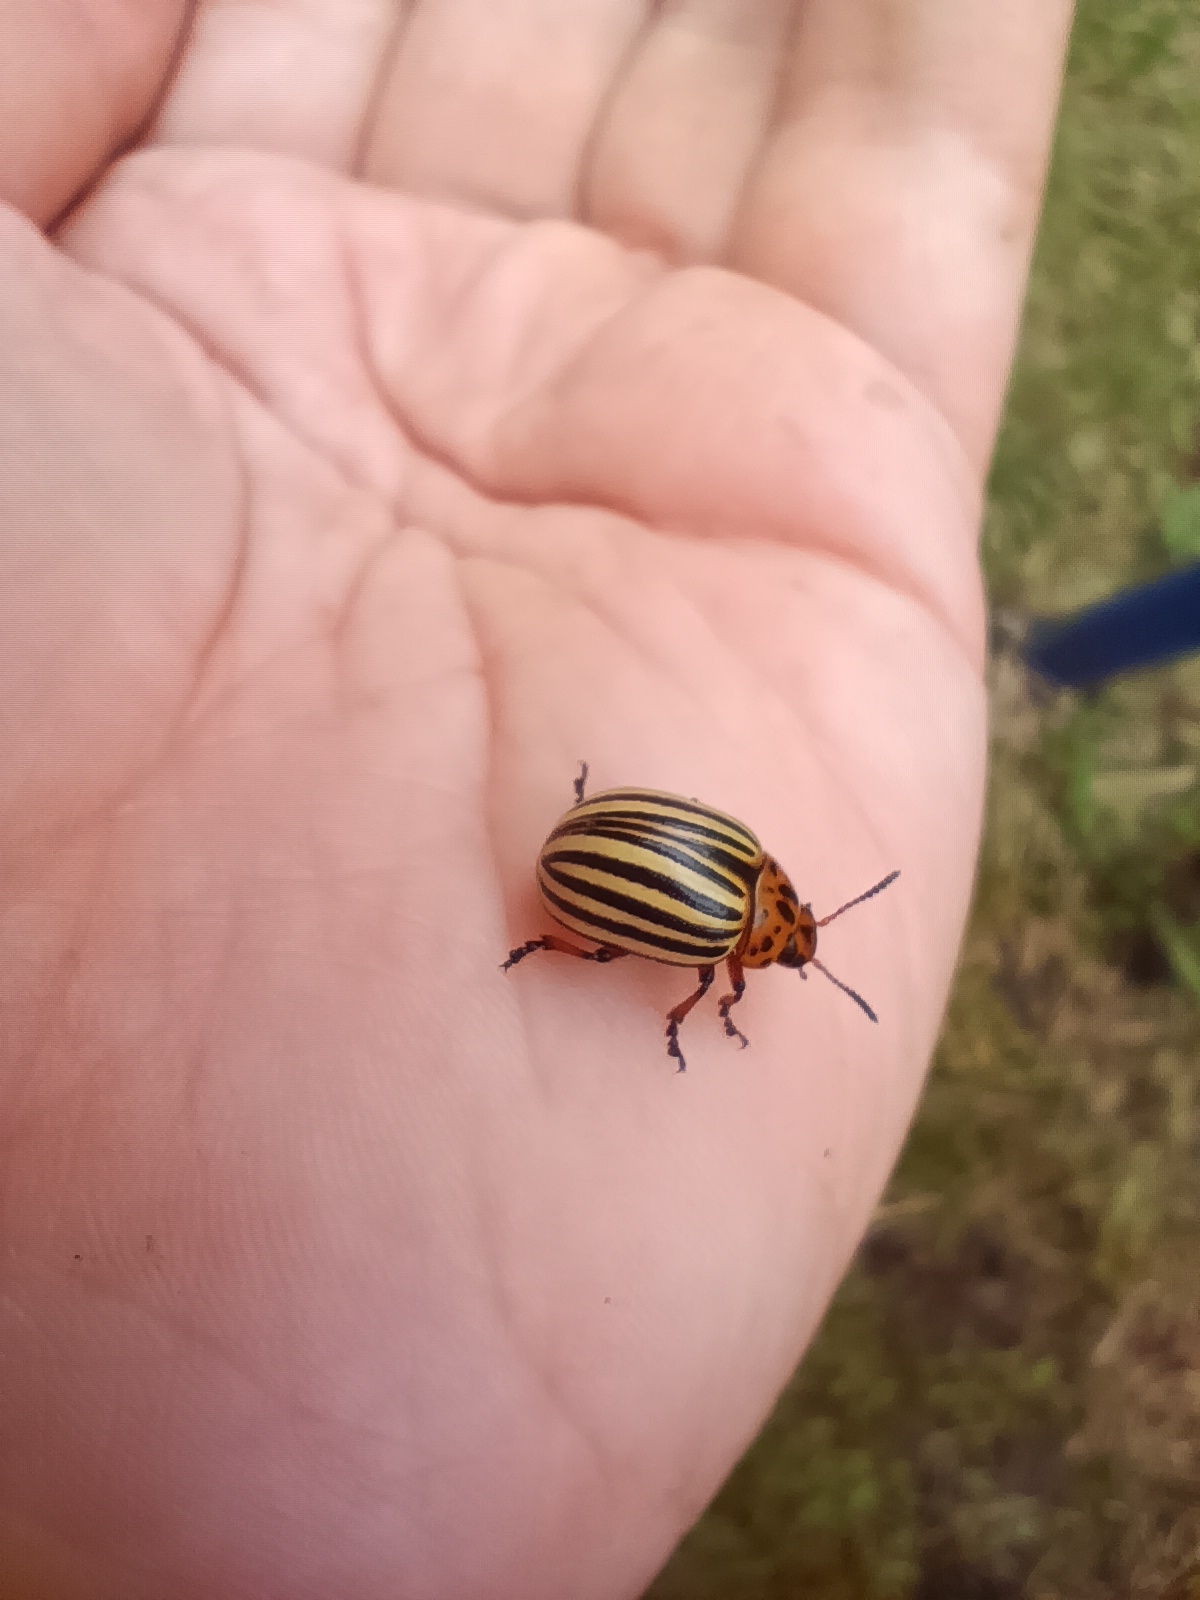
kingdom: Animalia
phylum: Arthropoda
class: Insecta
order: Coleoptera
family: Chrysomelidae
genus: Leptinotarsa
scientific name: Leptinotarsa decemlineata
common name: Colorado potato beetle
